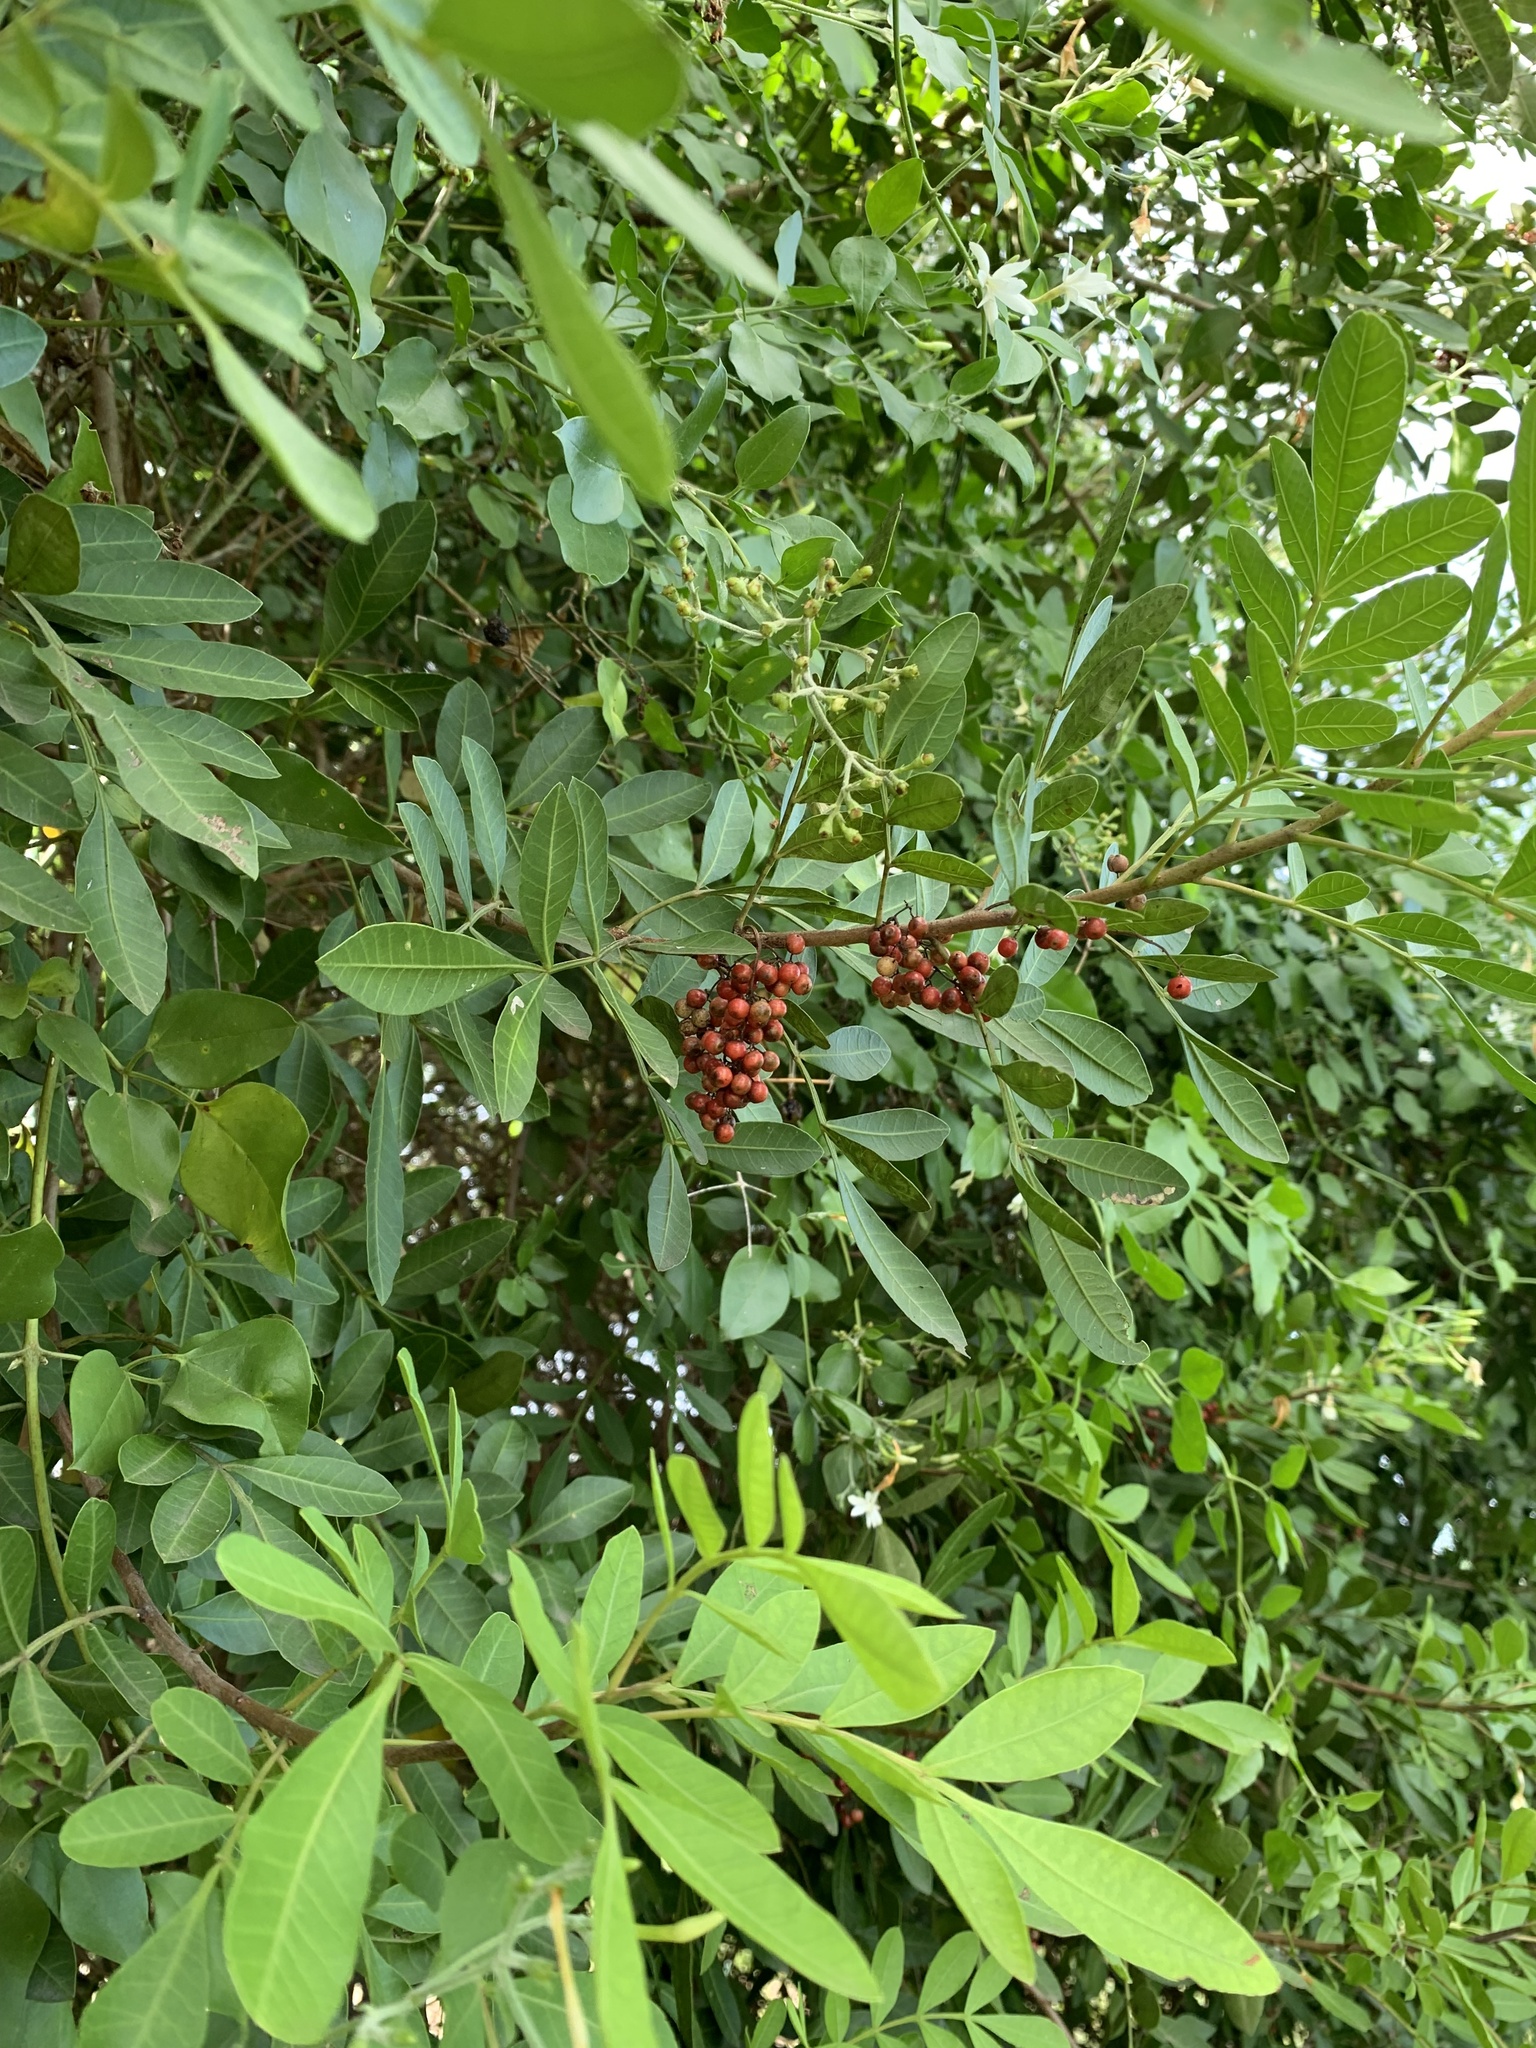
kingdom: Plantae
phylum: Tracheophyta
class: Magnoliopsida
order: Sapindales
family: Anacardiaceae
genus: Schinus
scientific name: Schinus terebinthifolia
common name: Brazilian peppertree
